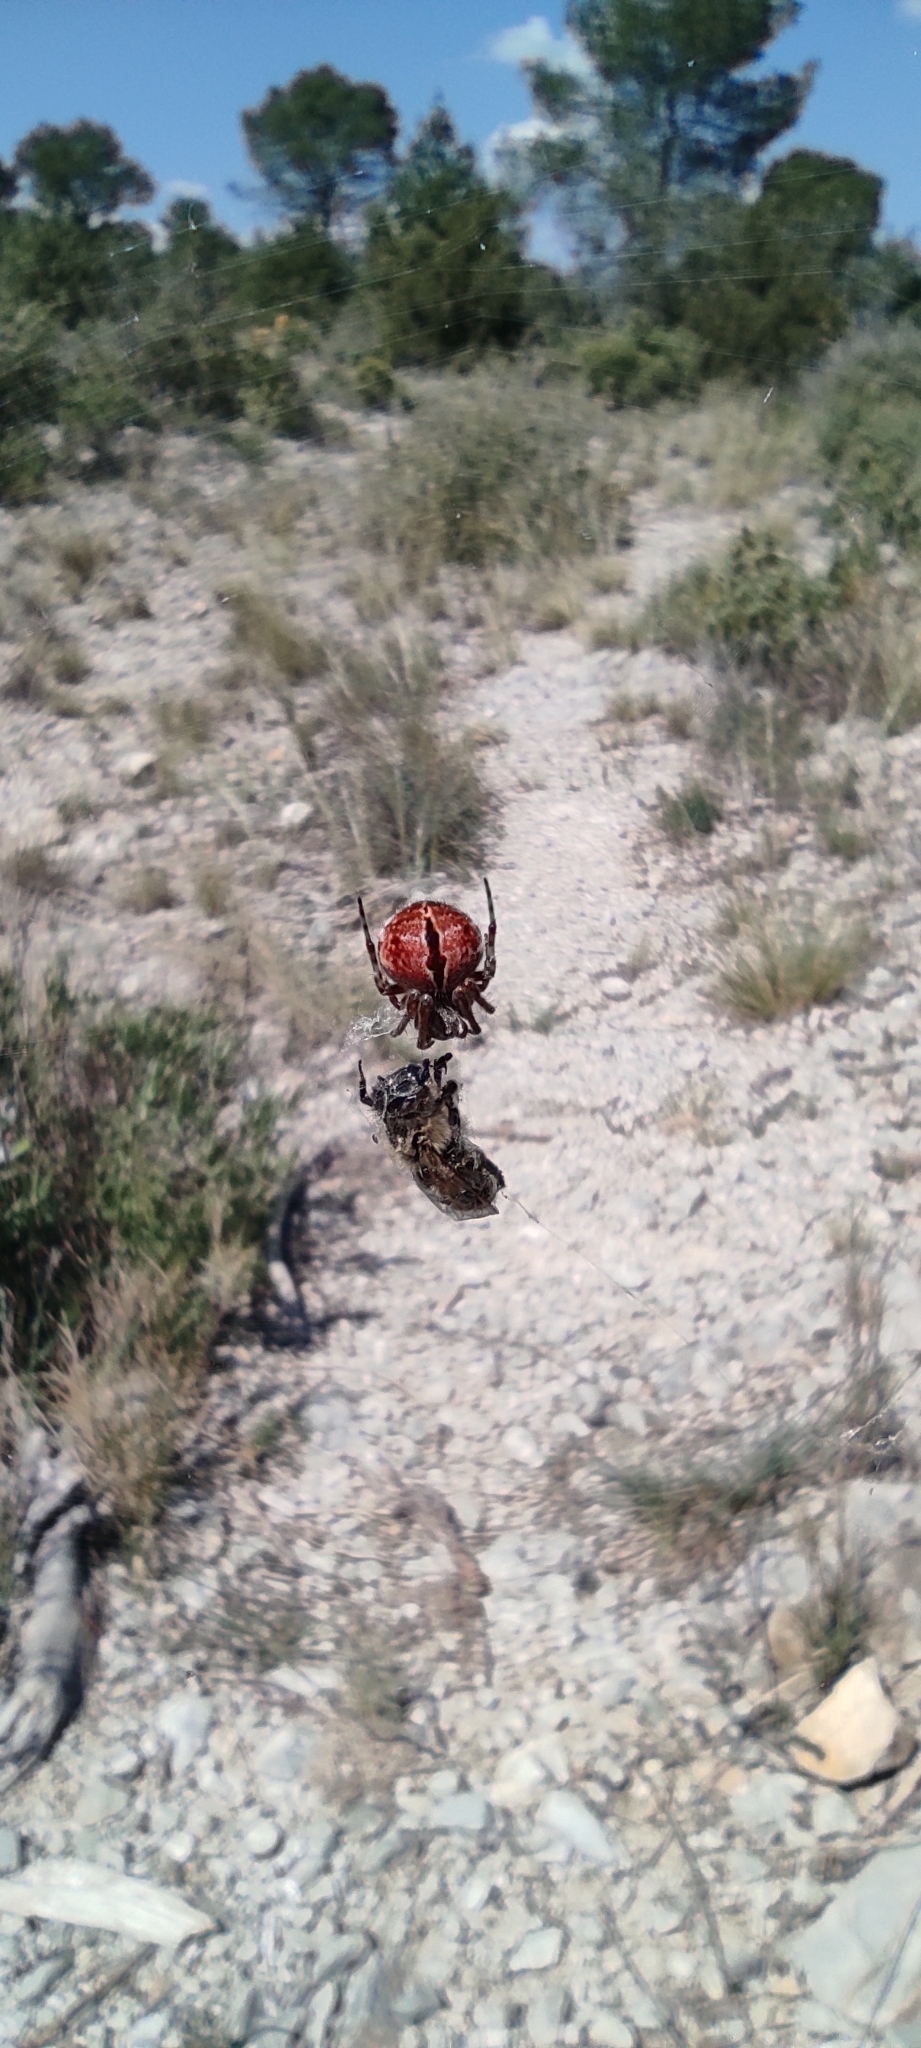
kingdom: Animalia
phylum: Arthropoda
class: Arachnida
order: Araneae
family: Araneidae
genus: Agalenatea
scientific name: Agalenatea redii
